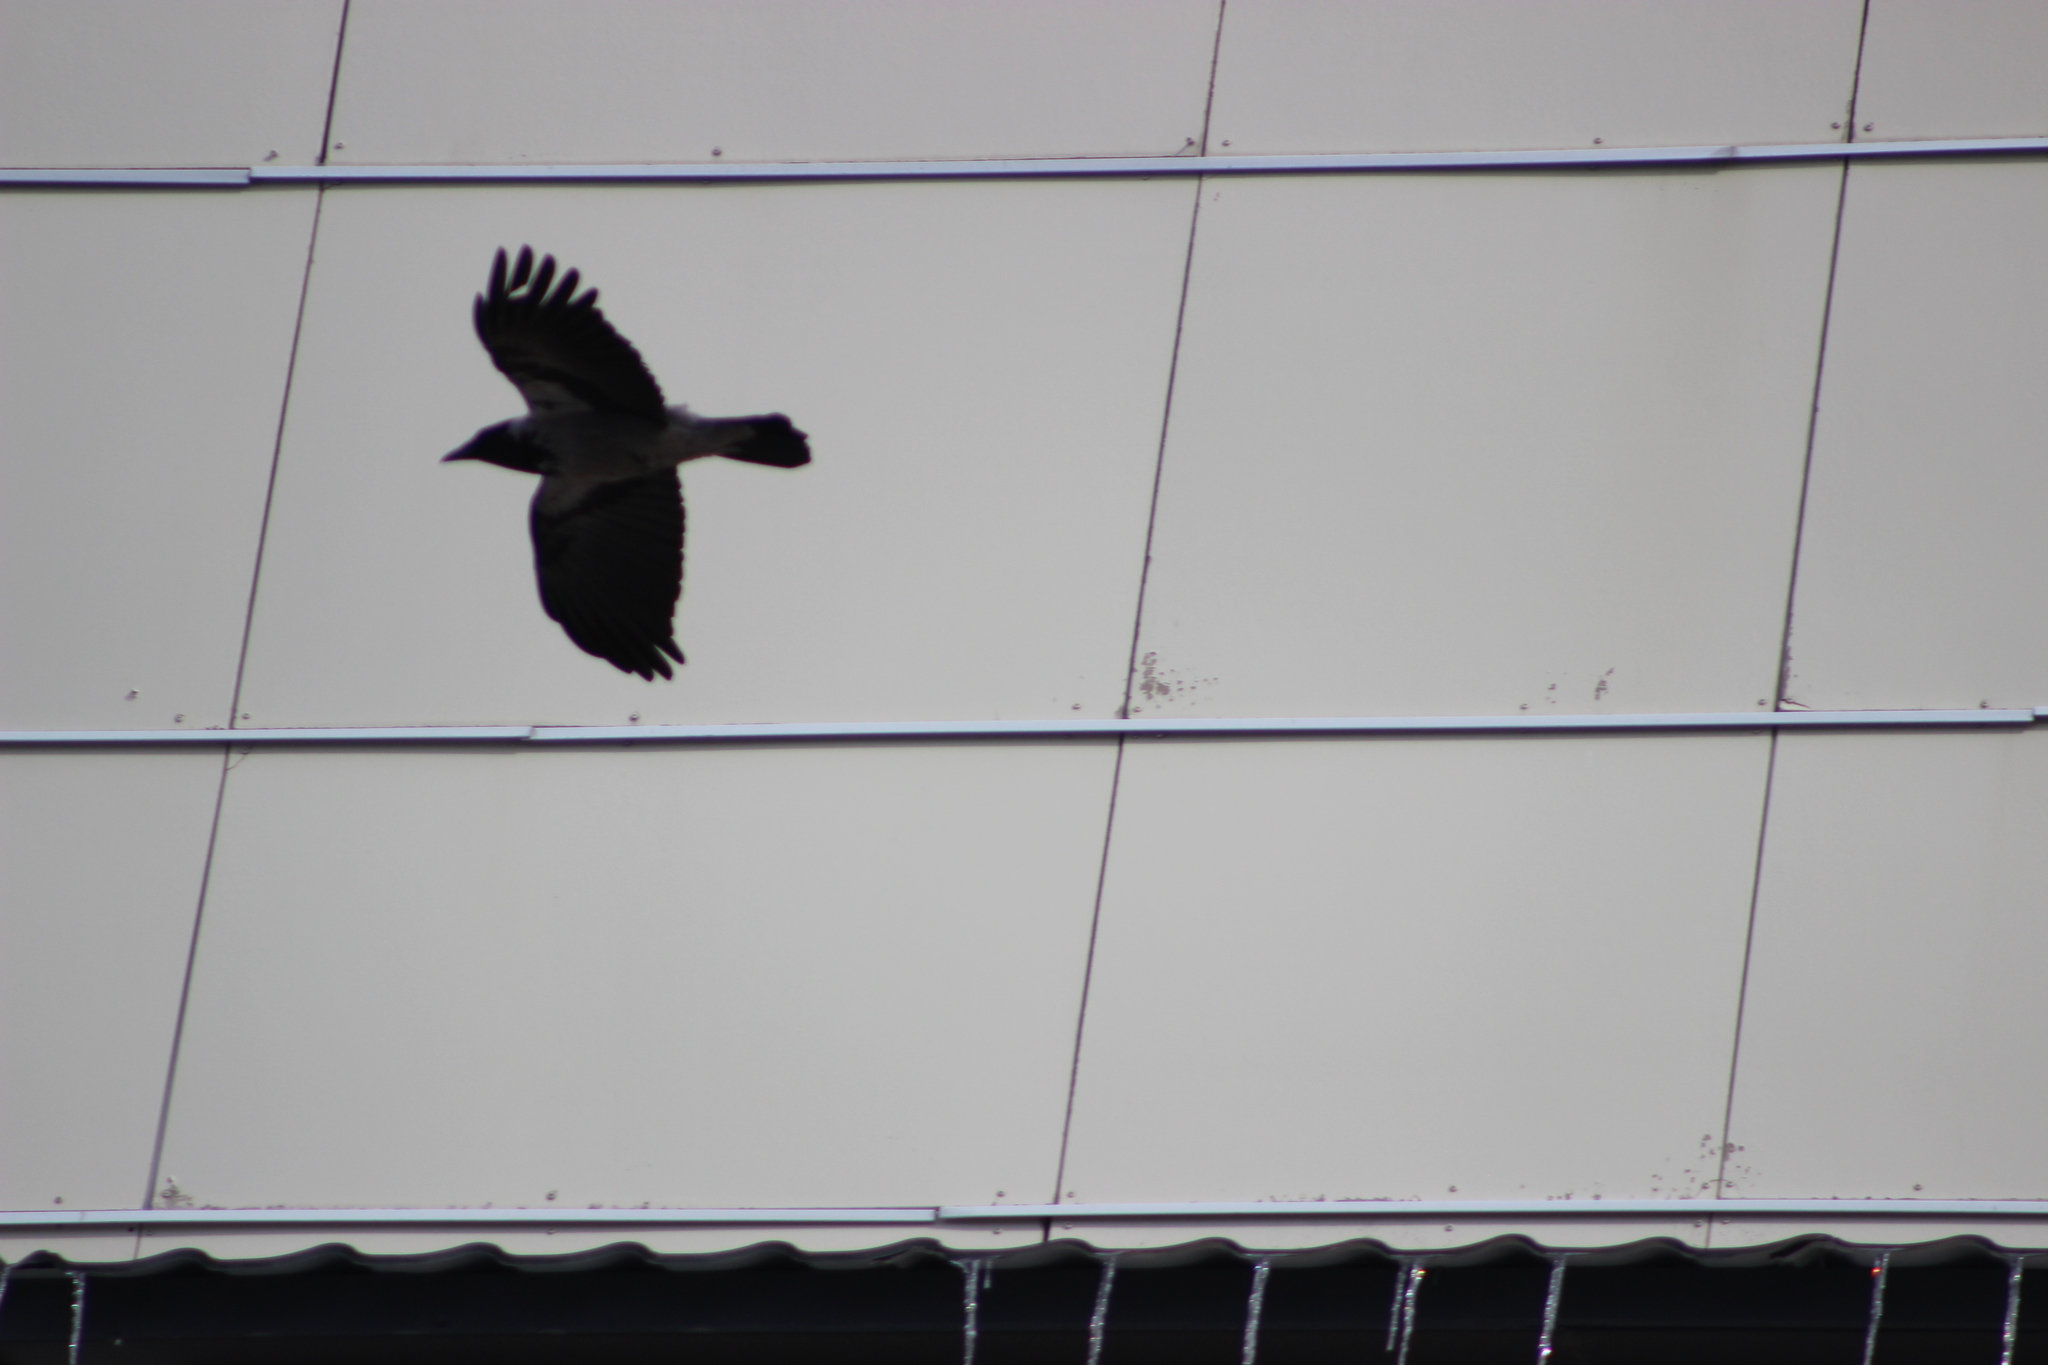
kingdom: Animalia
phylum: Chordata
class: Aves
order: Passeriformes
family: Corvidae
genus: Corvus
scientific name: Corvus cornix
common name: Hooded crow
